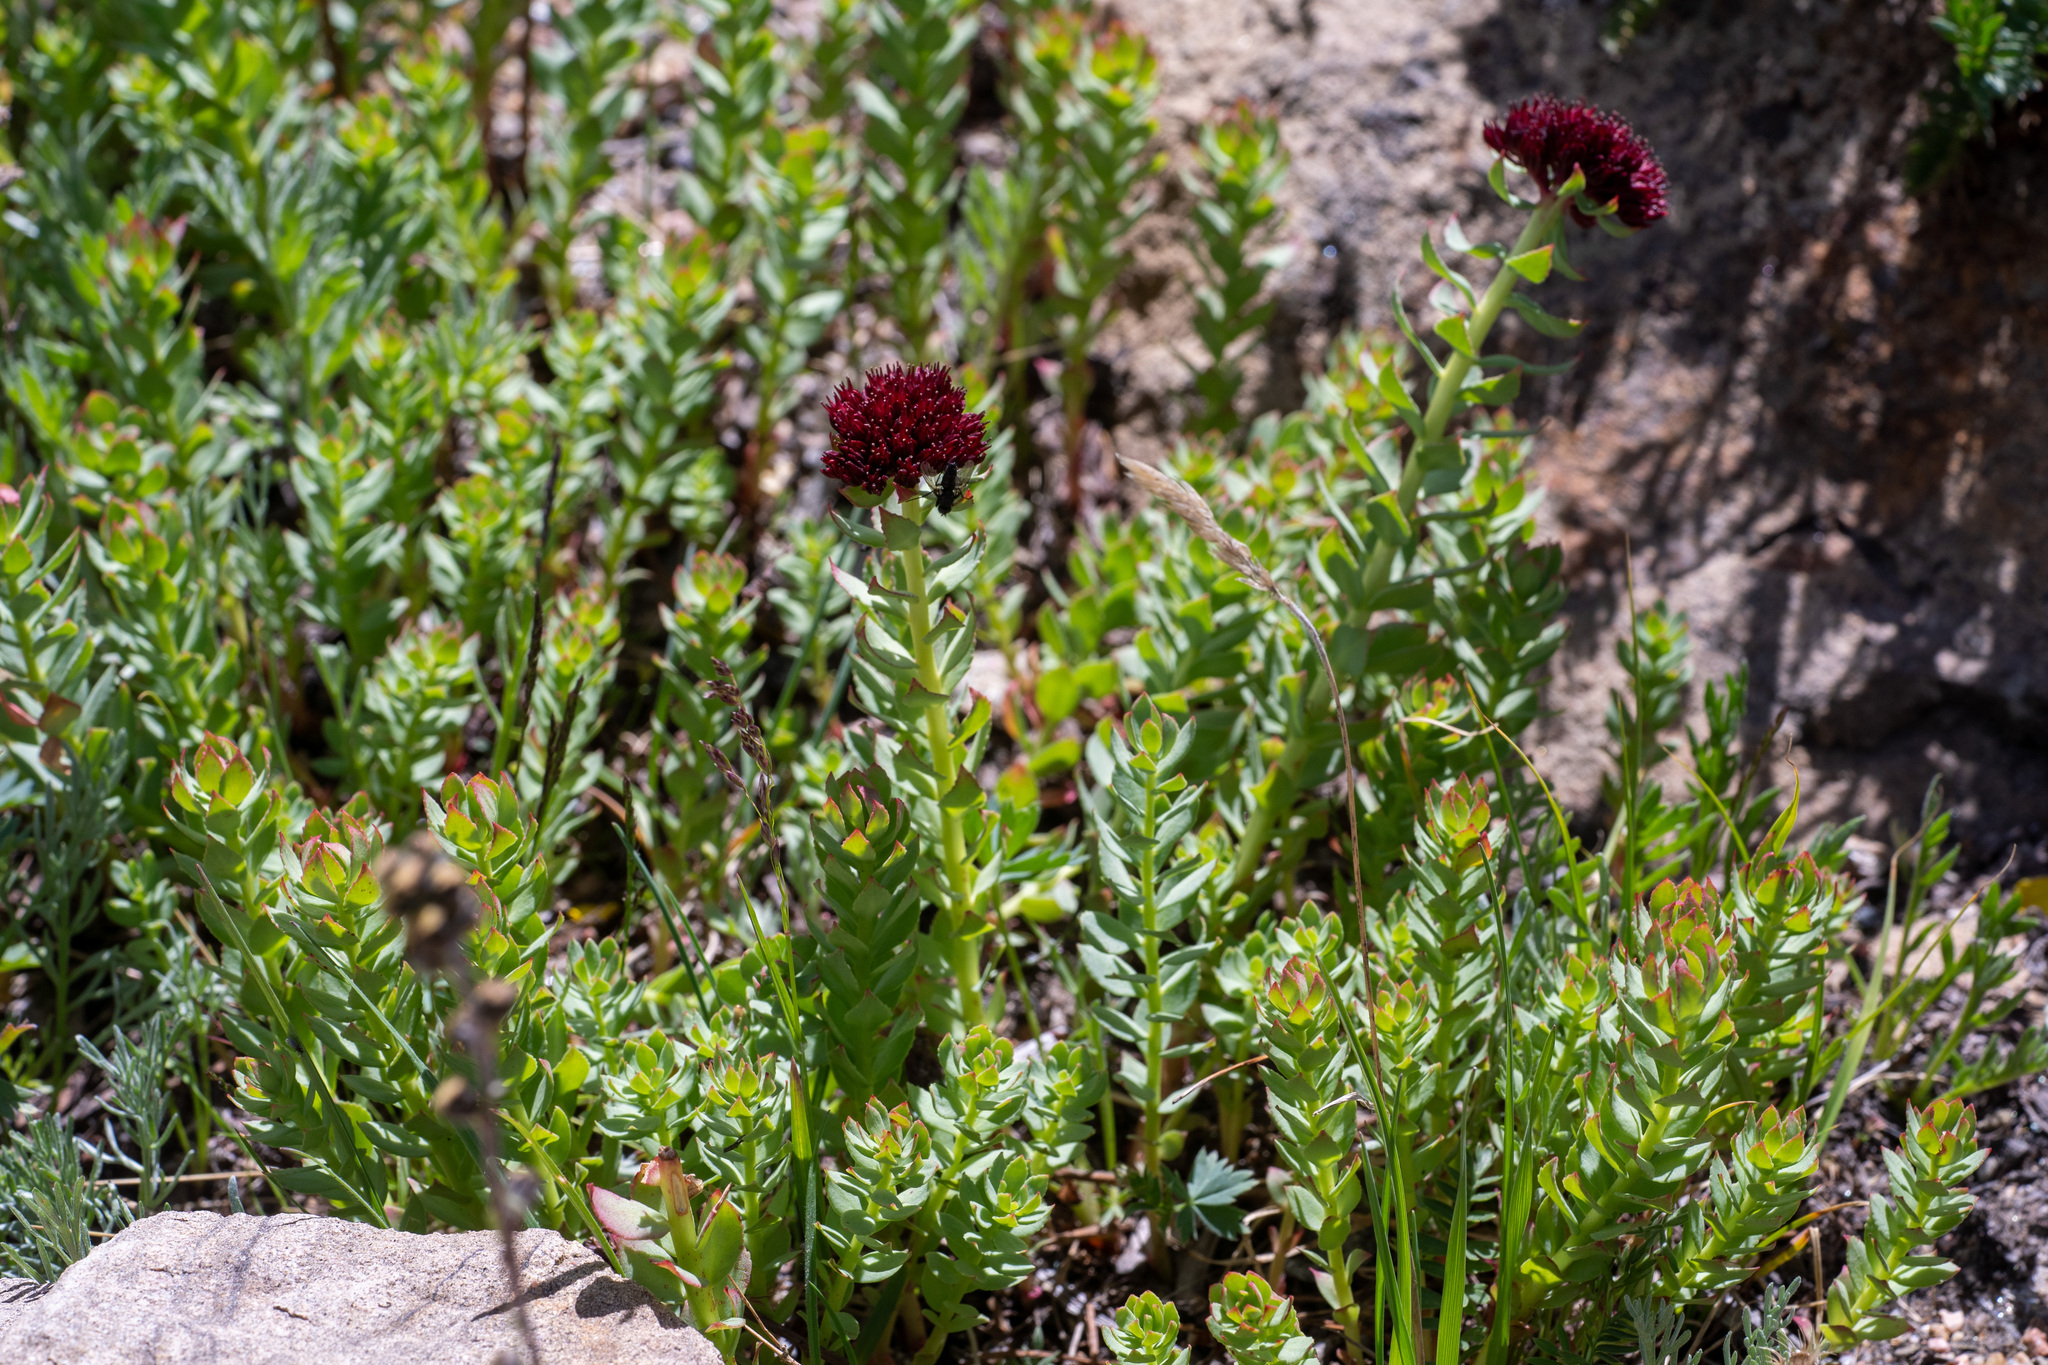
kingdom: Plantae
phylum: Tracheophyta
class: Magnoliopsida
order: Saxifragales
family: Crassulaceae
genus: Rhodiola
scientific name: Rhodiola integrifolia
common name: Western roseroot
